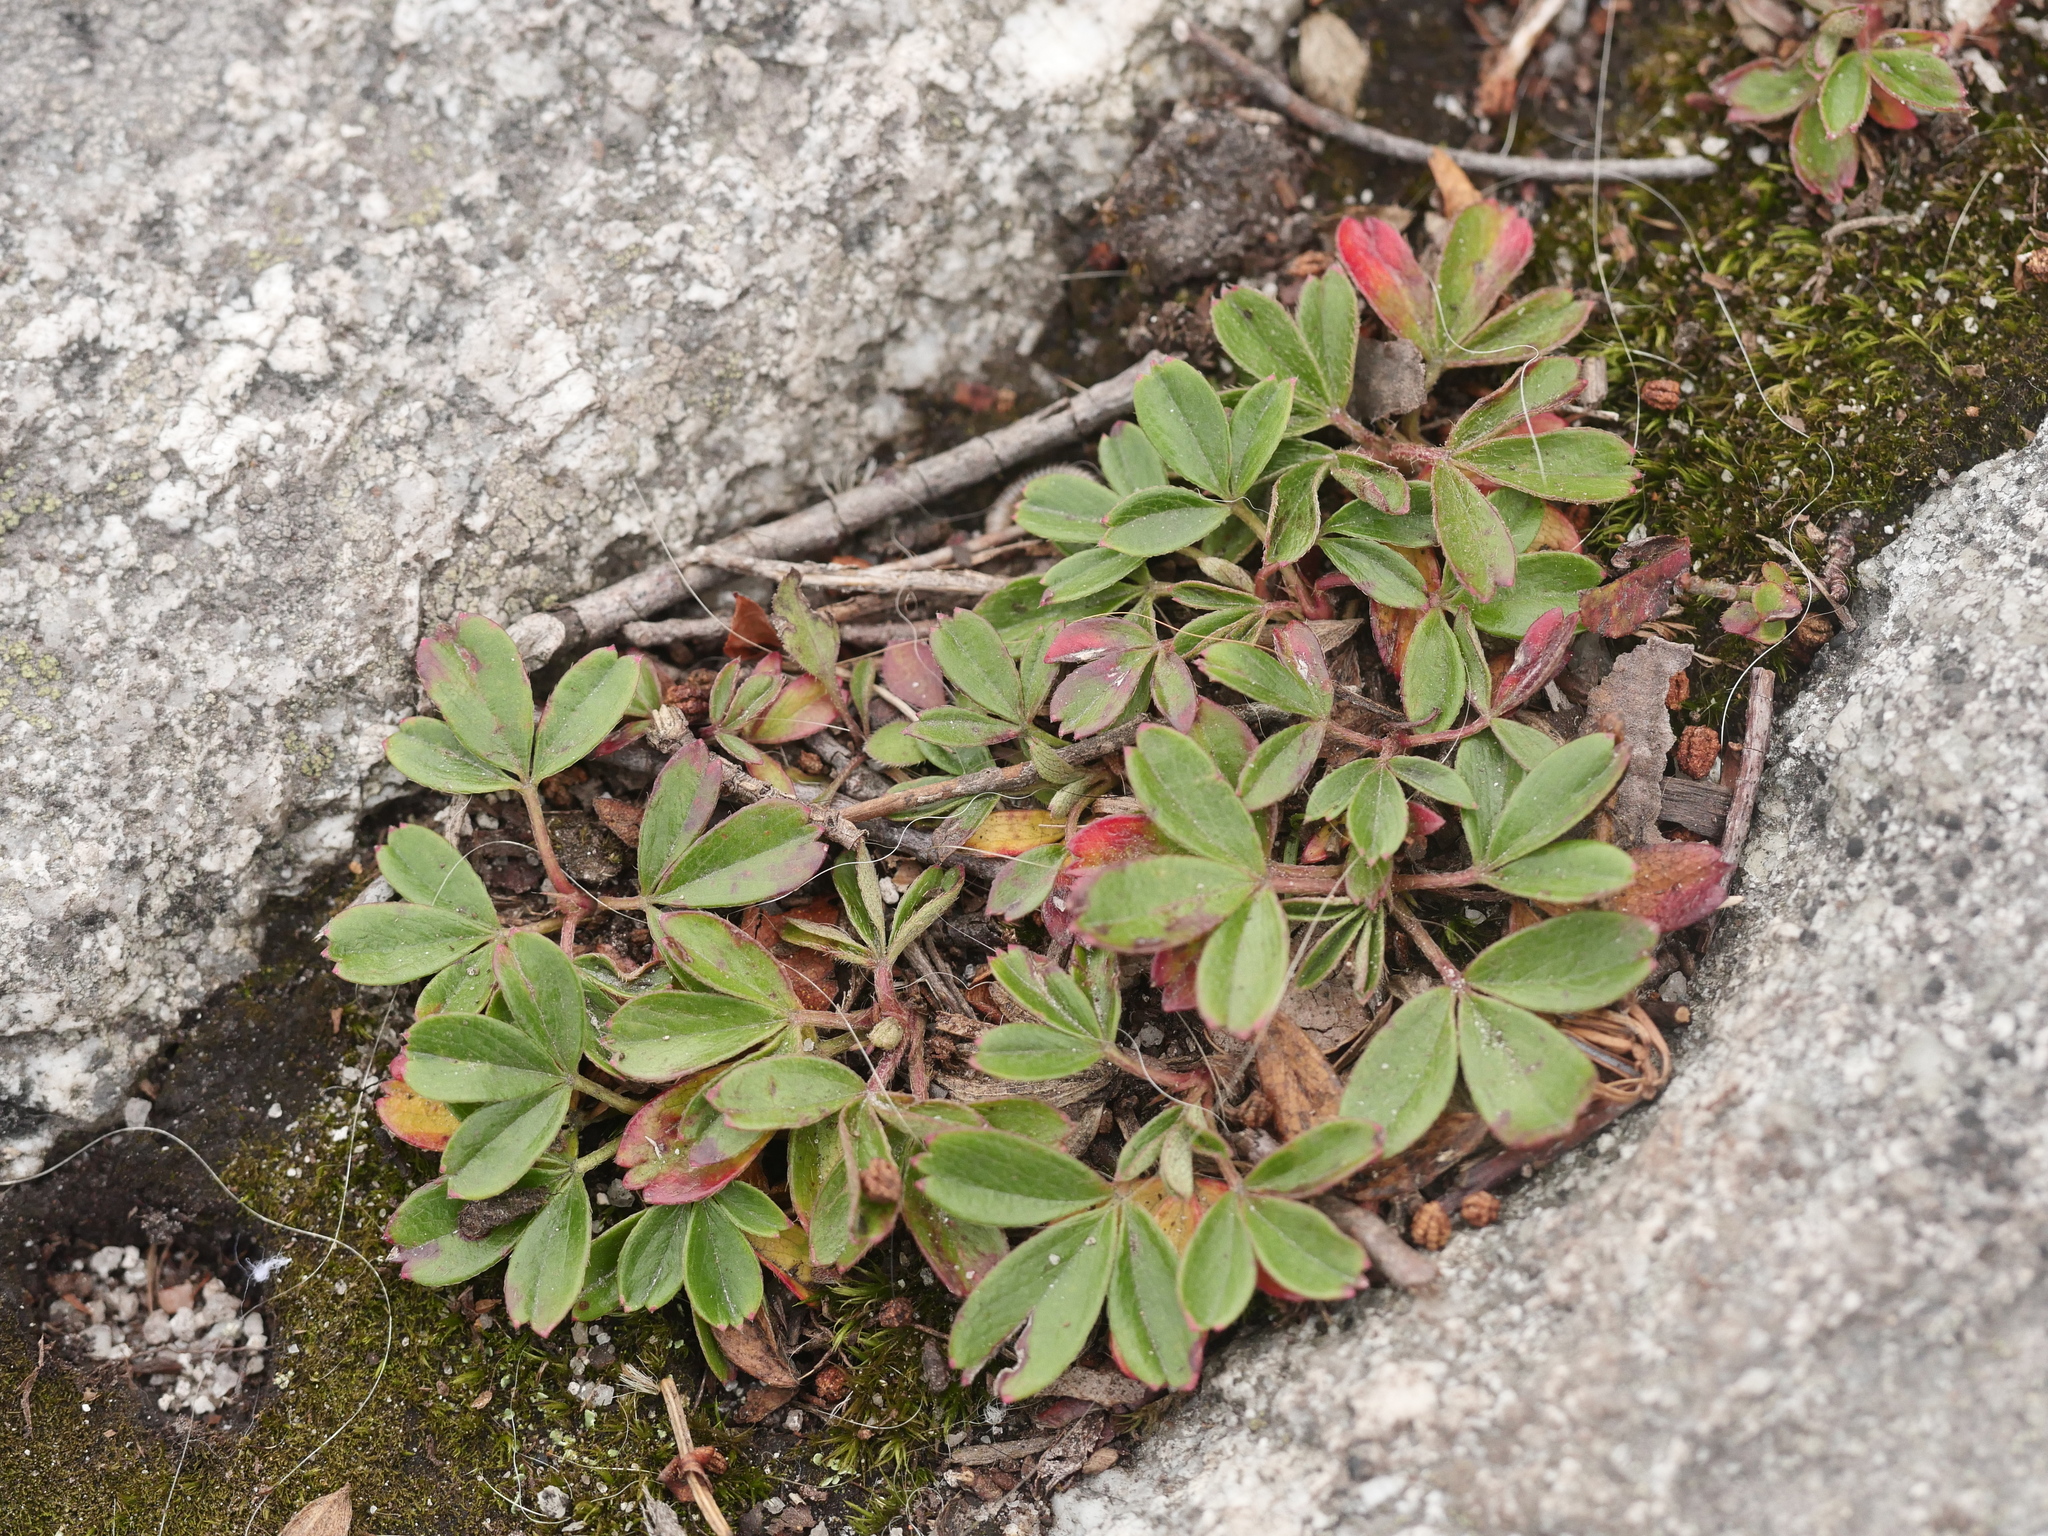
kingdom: Plantae
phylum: Tracheophyta
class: Magnoliopsida
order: Rosales
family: Rosaceae
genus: Sibbaldia
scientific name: Sibbaldia tridentata
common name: Three-toothed cinquefoil
